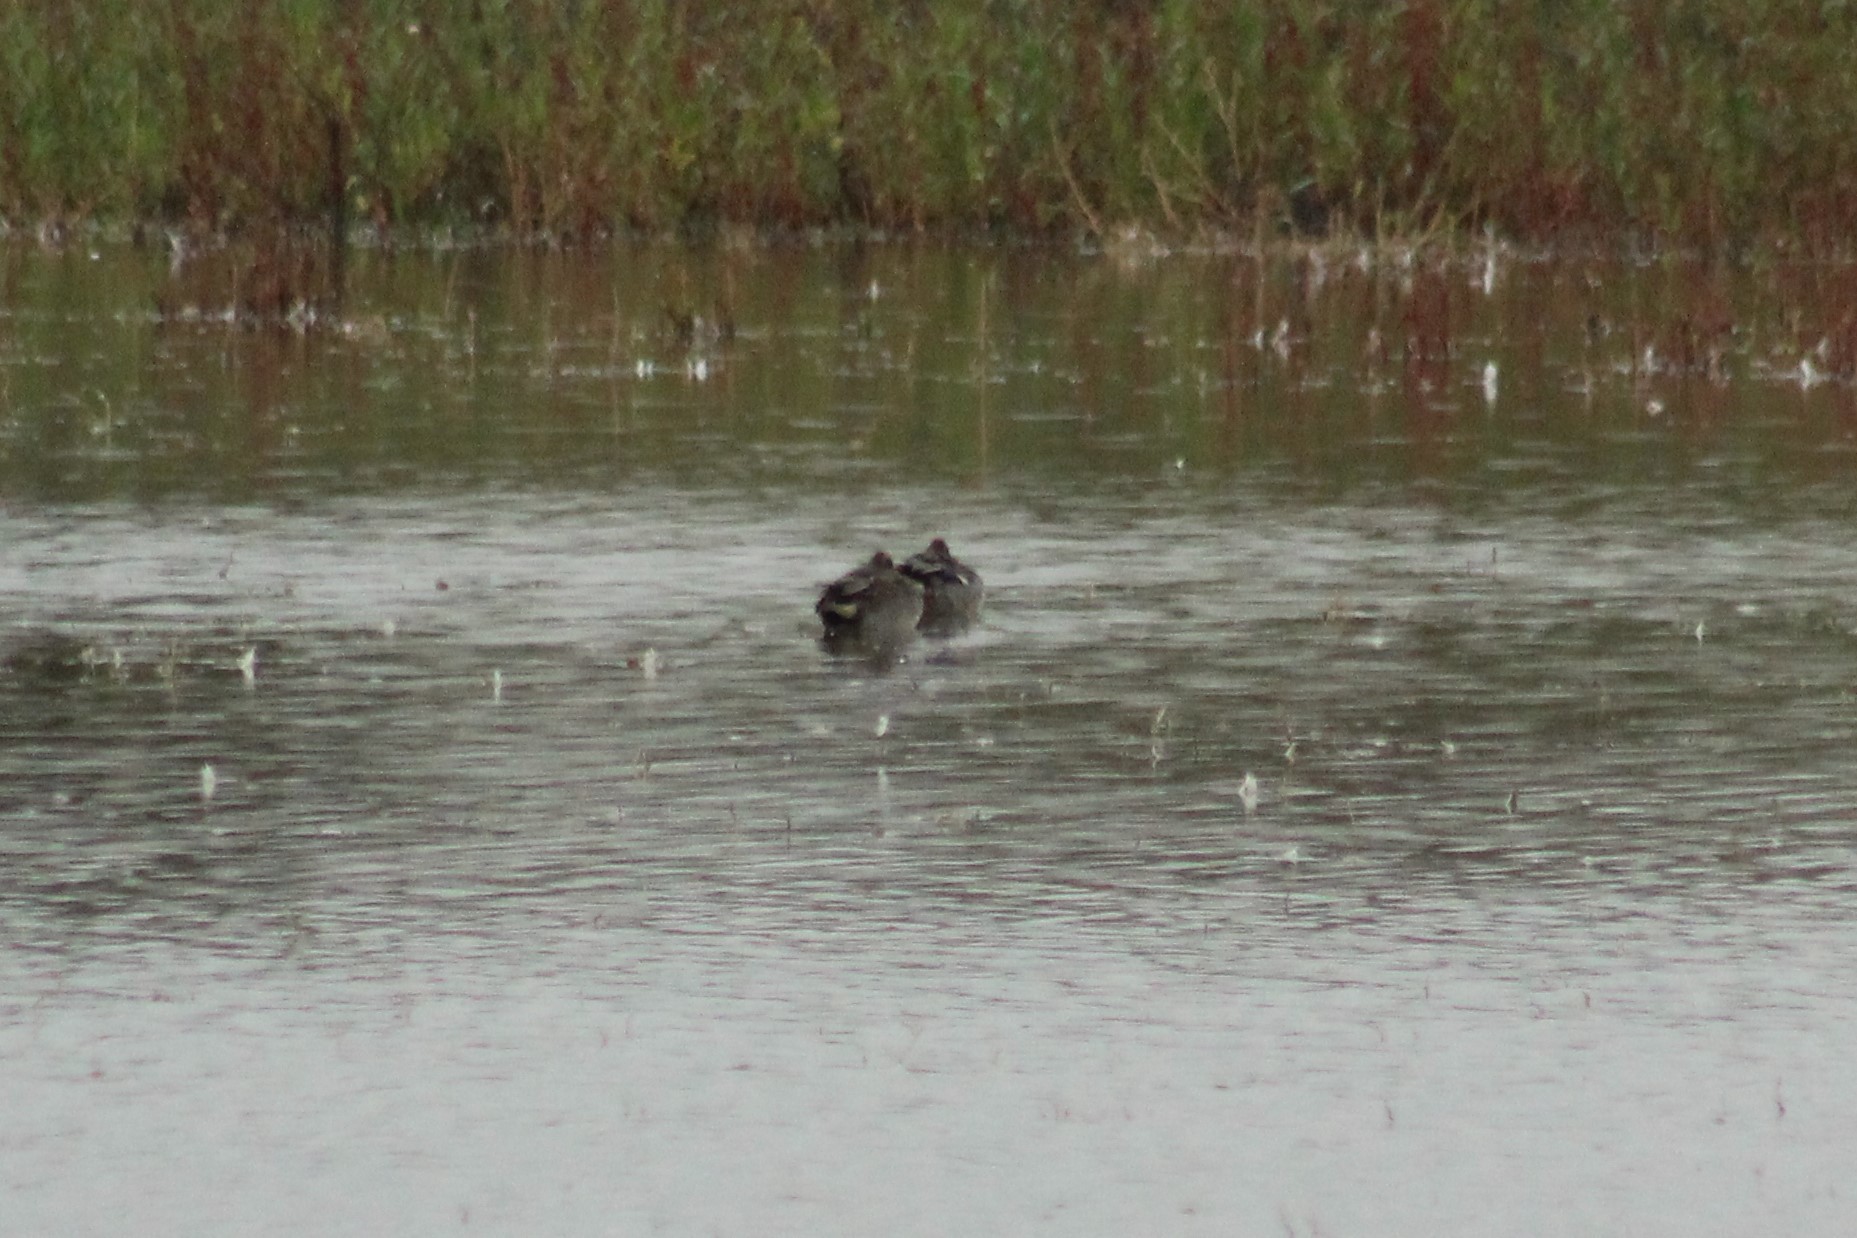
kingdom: Animalia
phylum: Chordata
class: Aves
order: Anseriformes
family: Anatidae
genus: Anas
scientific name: Anas crecca
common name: Eurasian teal
